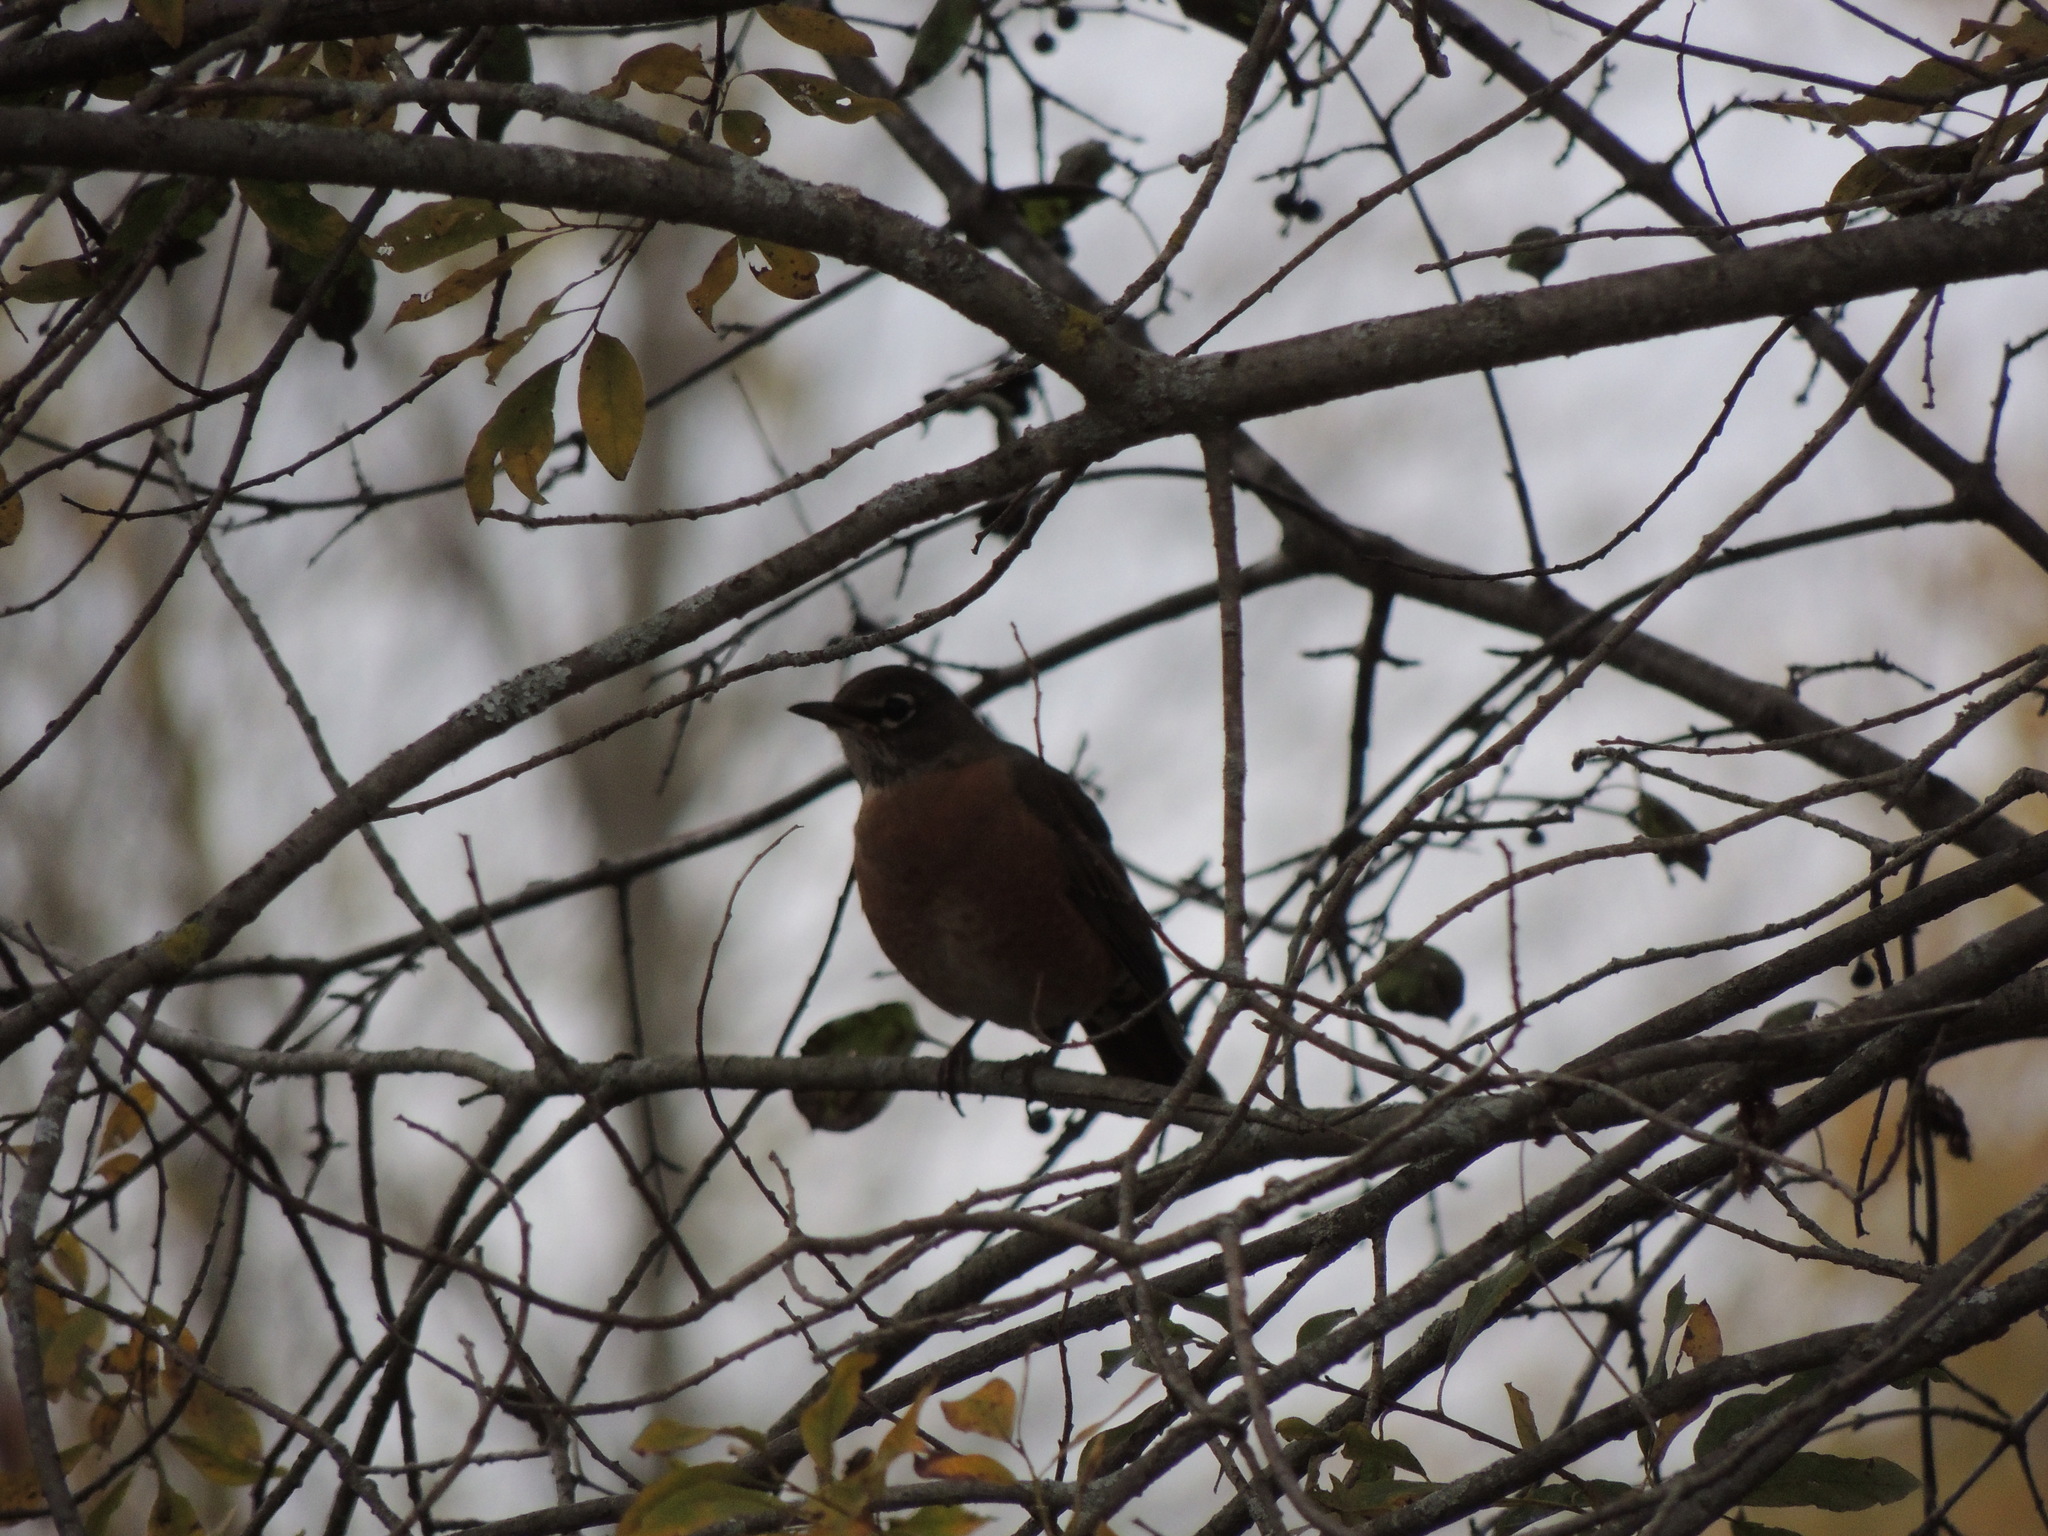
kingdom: Animalia
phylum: Chordata
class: Aves
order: Passeriformes
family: Turdidae
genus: Turdus
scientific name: Turdus migratorius
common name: American robin
